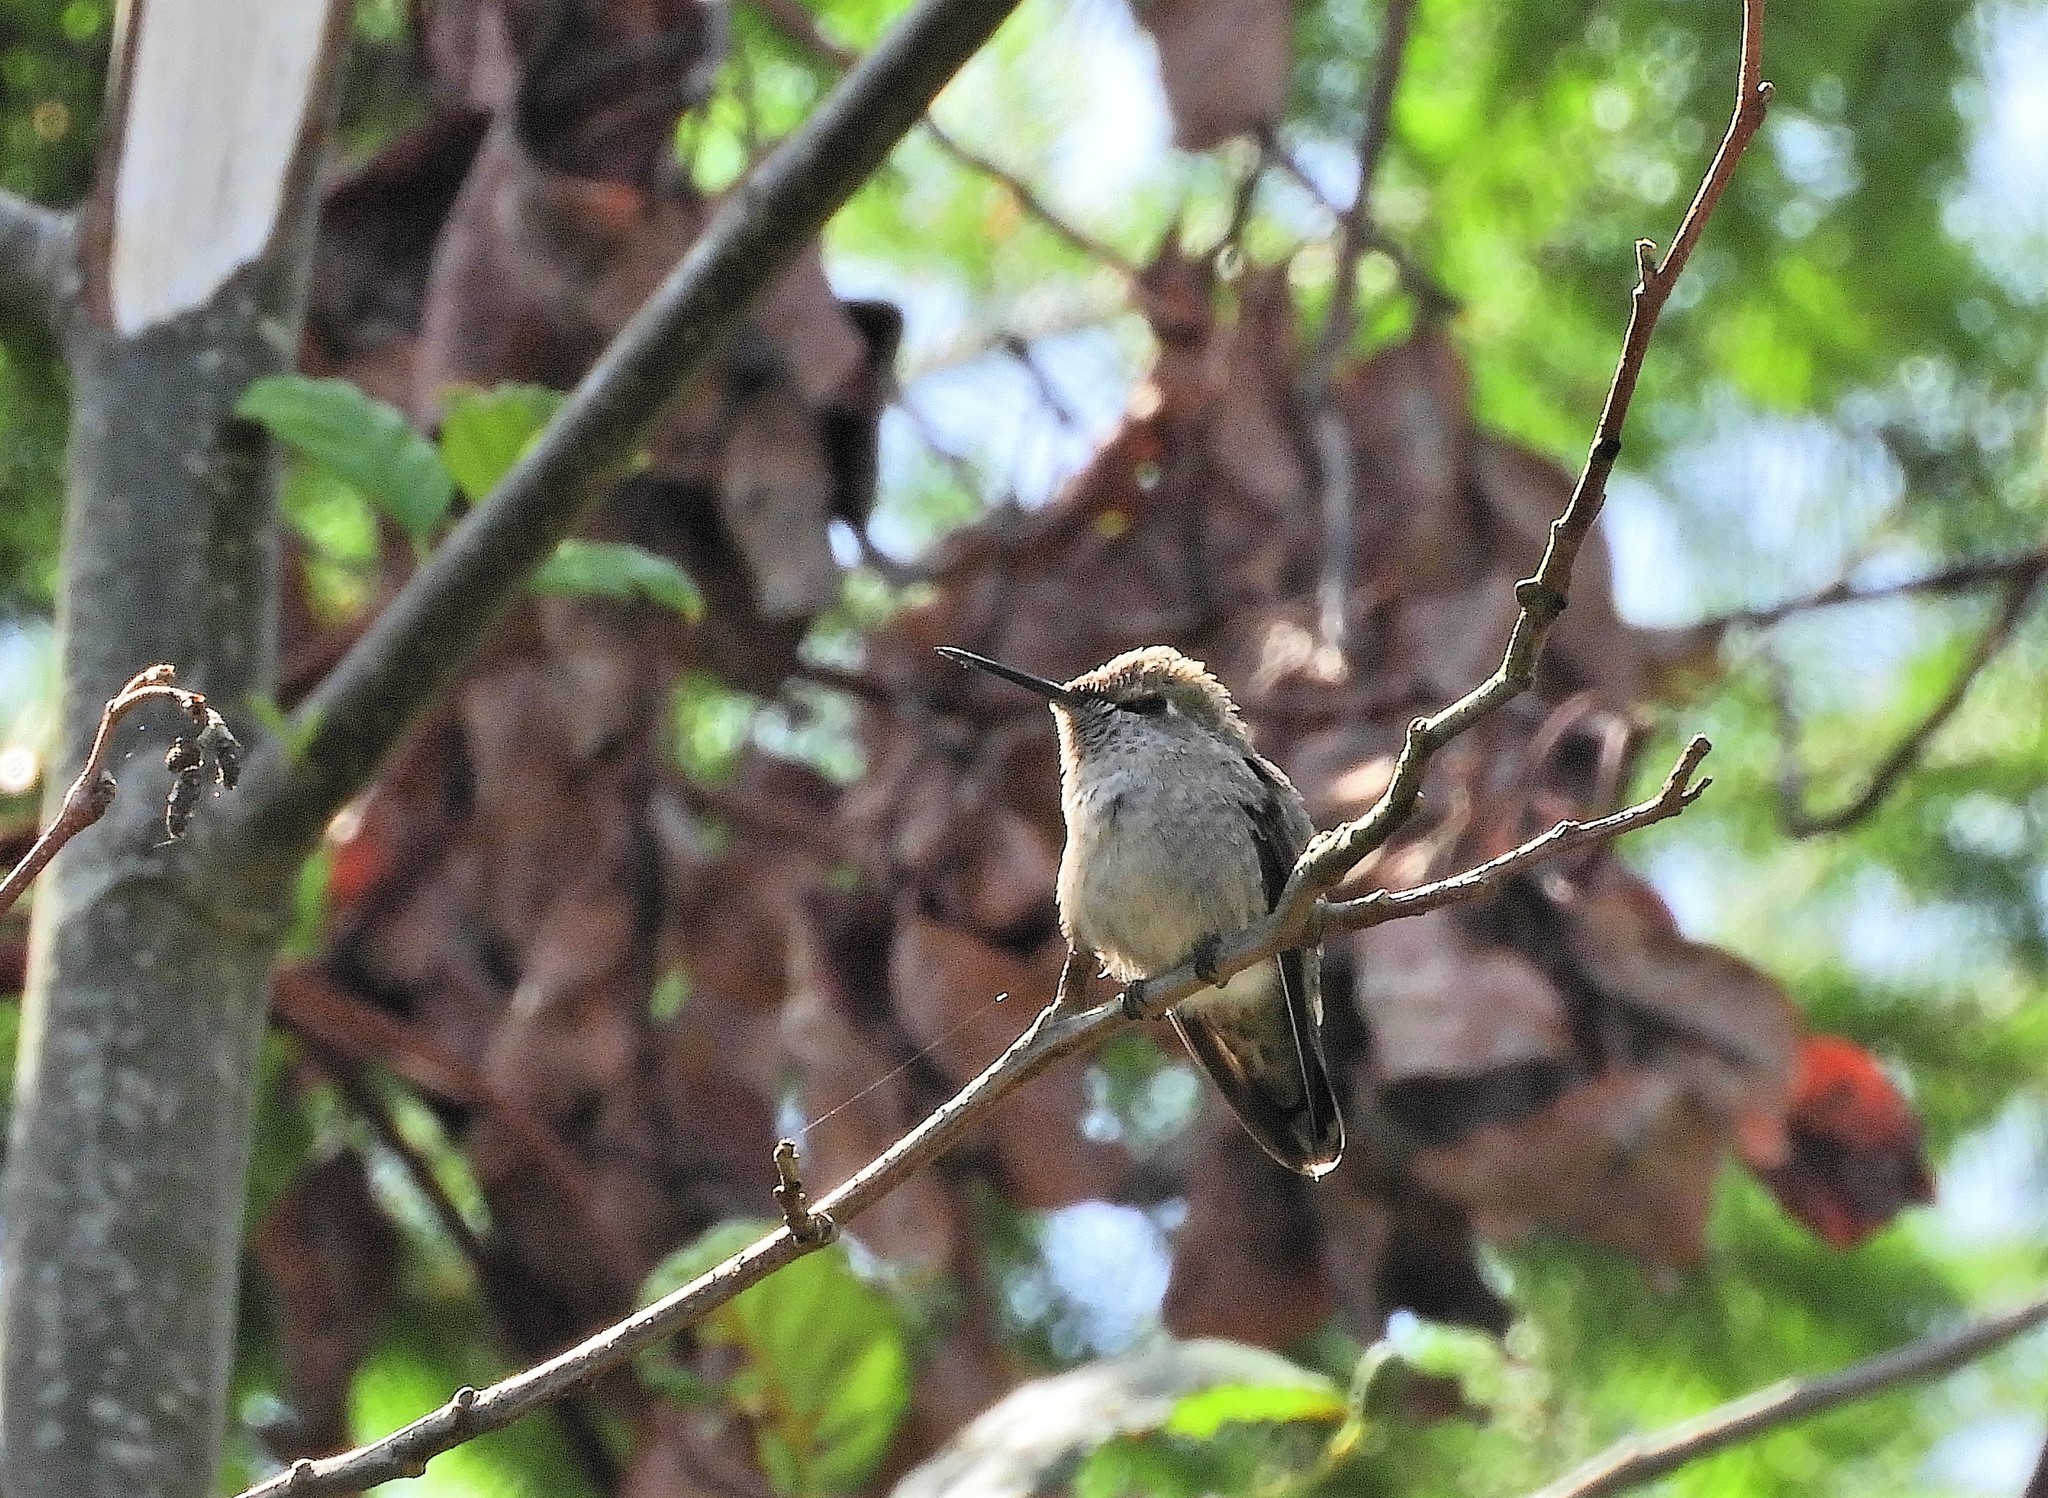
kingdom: Animalia
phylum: Chordata
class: Aves
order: Apodiformes
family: Trochilidae
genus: Calypte
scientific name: Calypte anna
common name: Anna's hummingbird
